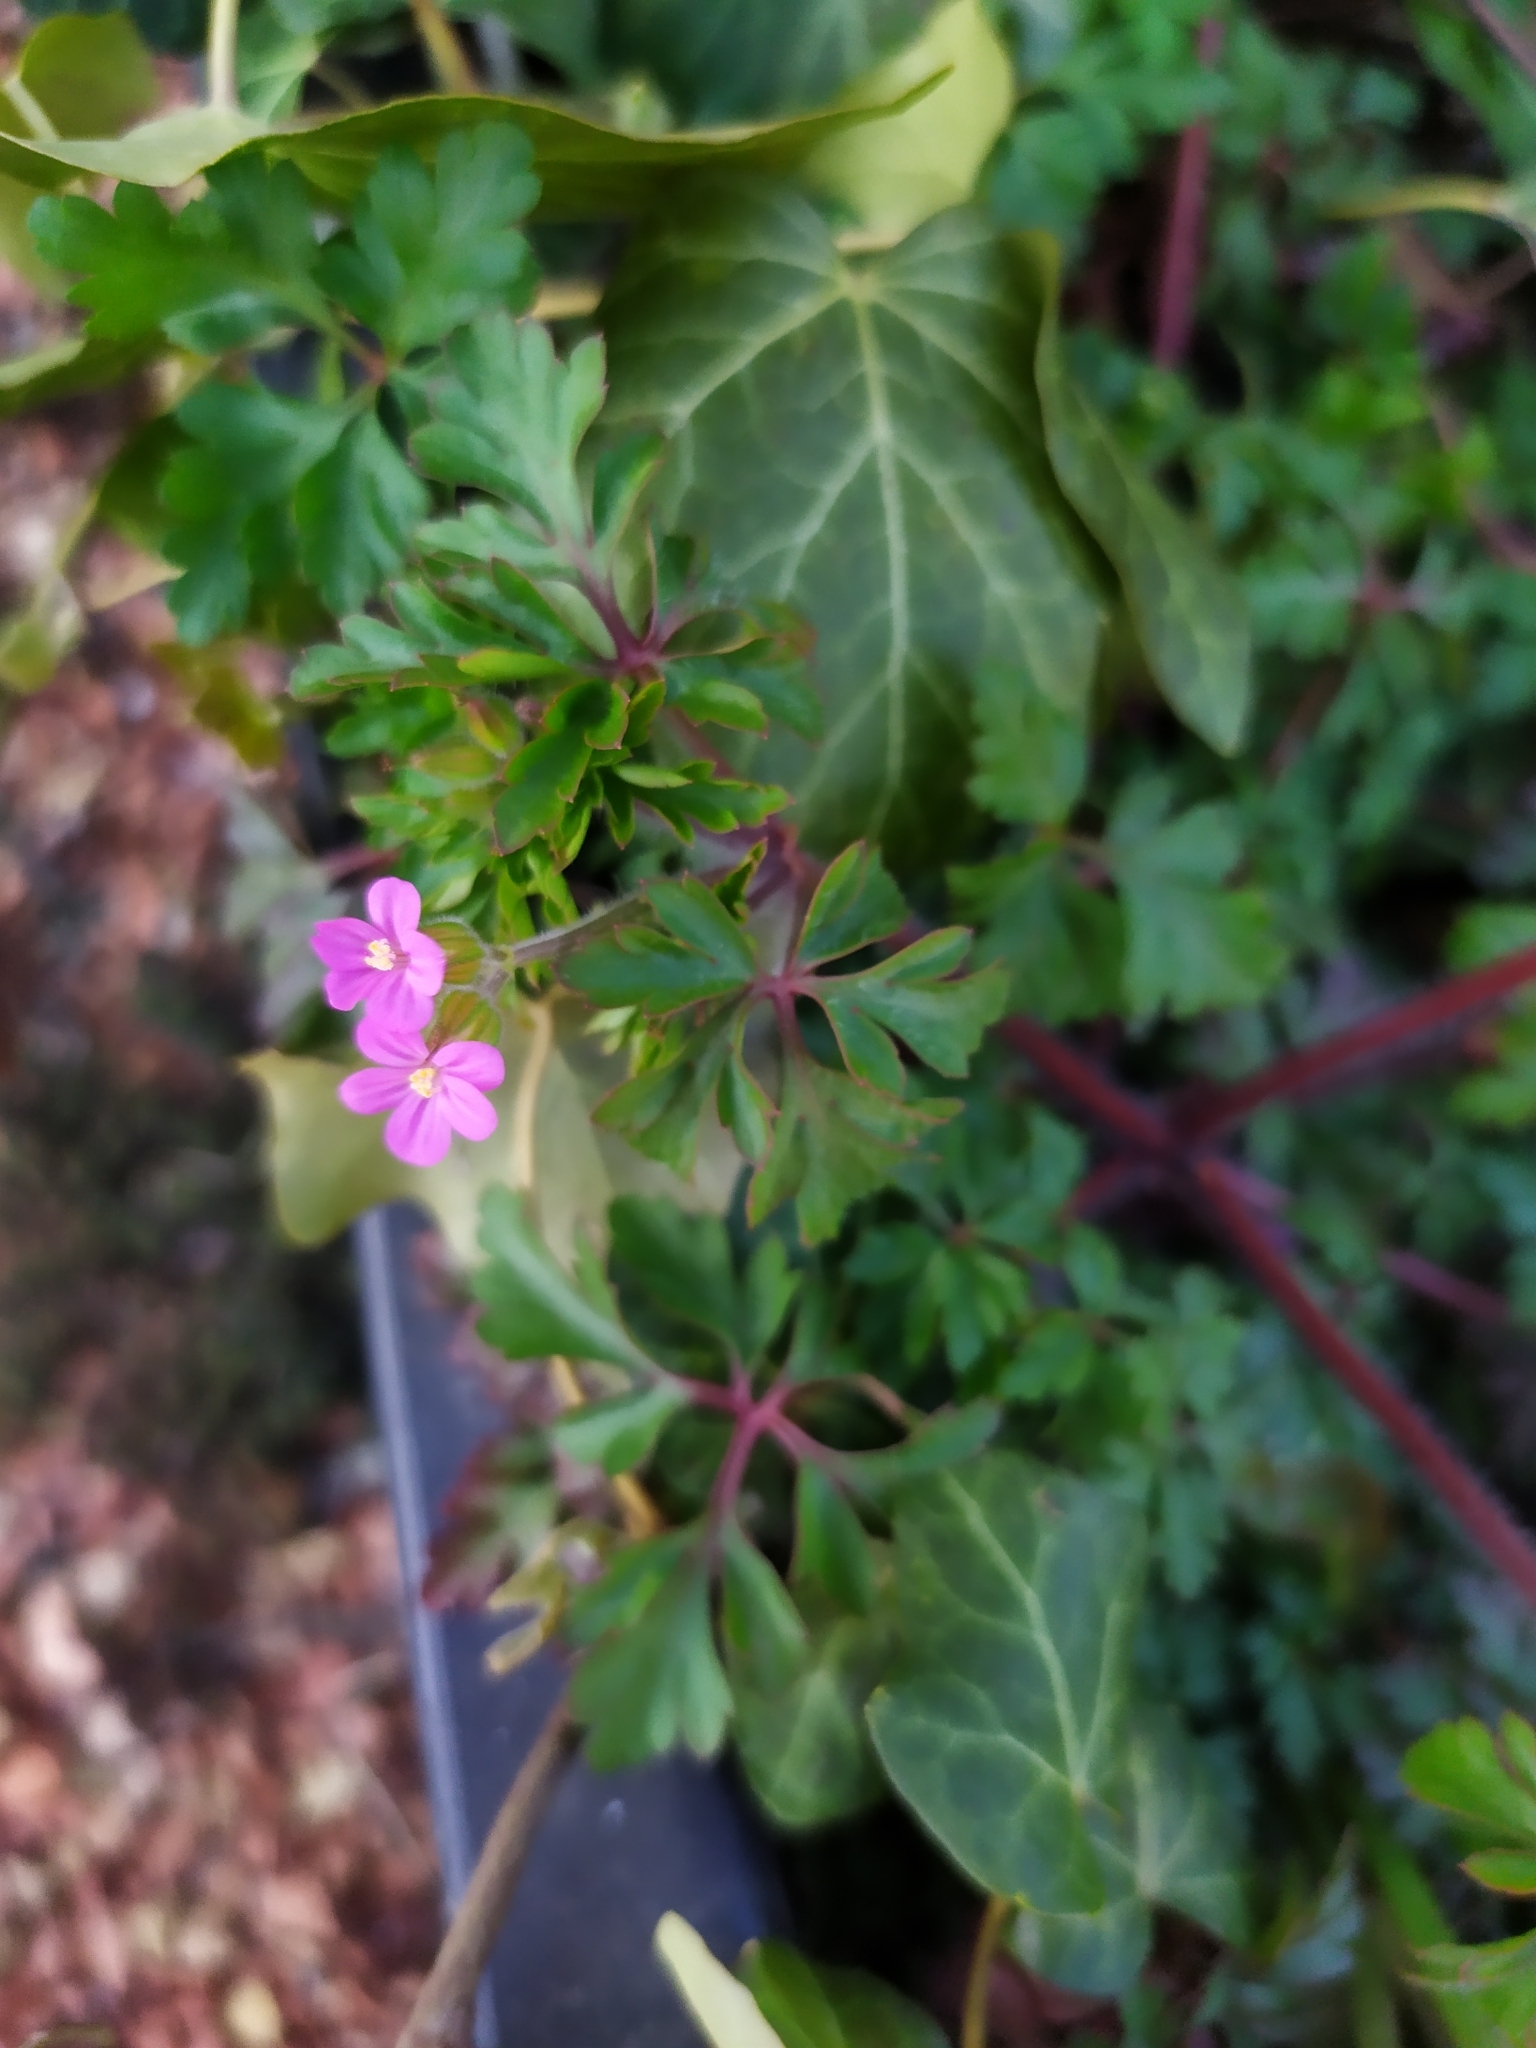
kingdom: Plantae
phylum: Tracheophyta
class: Magnoliopsida
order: Geraniales
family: Geraniaceae
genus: Geranium
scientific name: Geranium purpureum
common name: Little-robin
